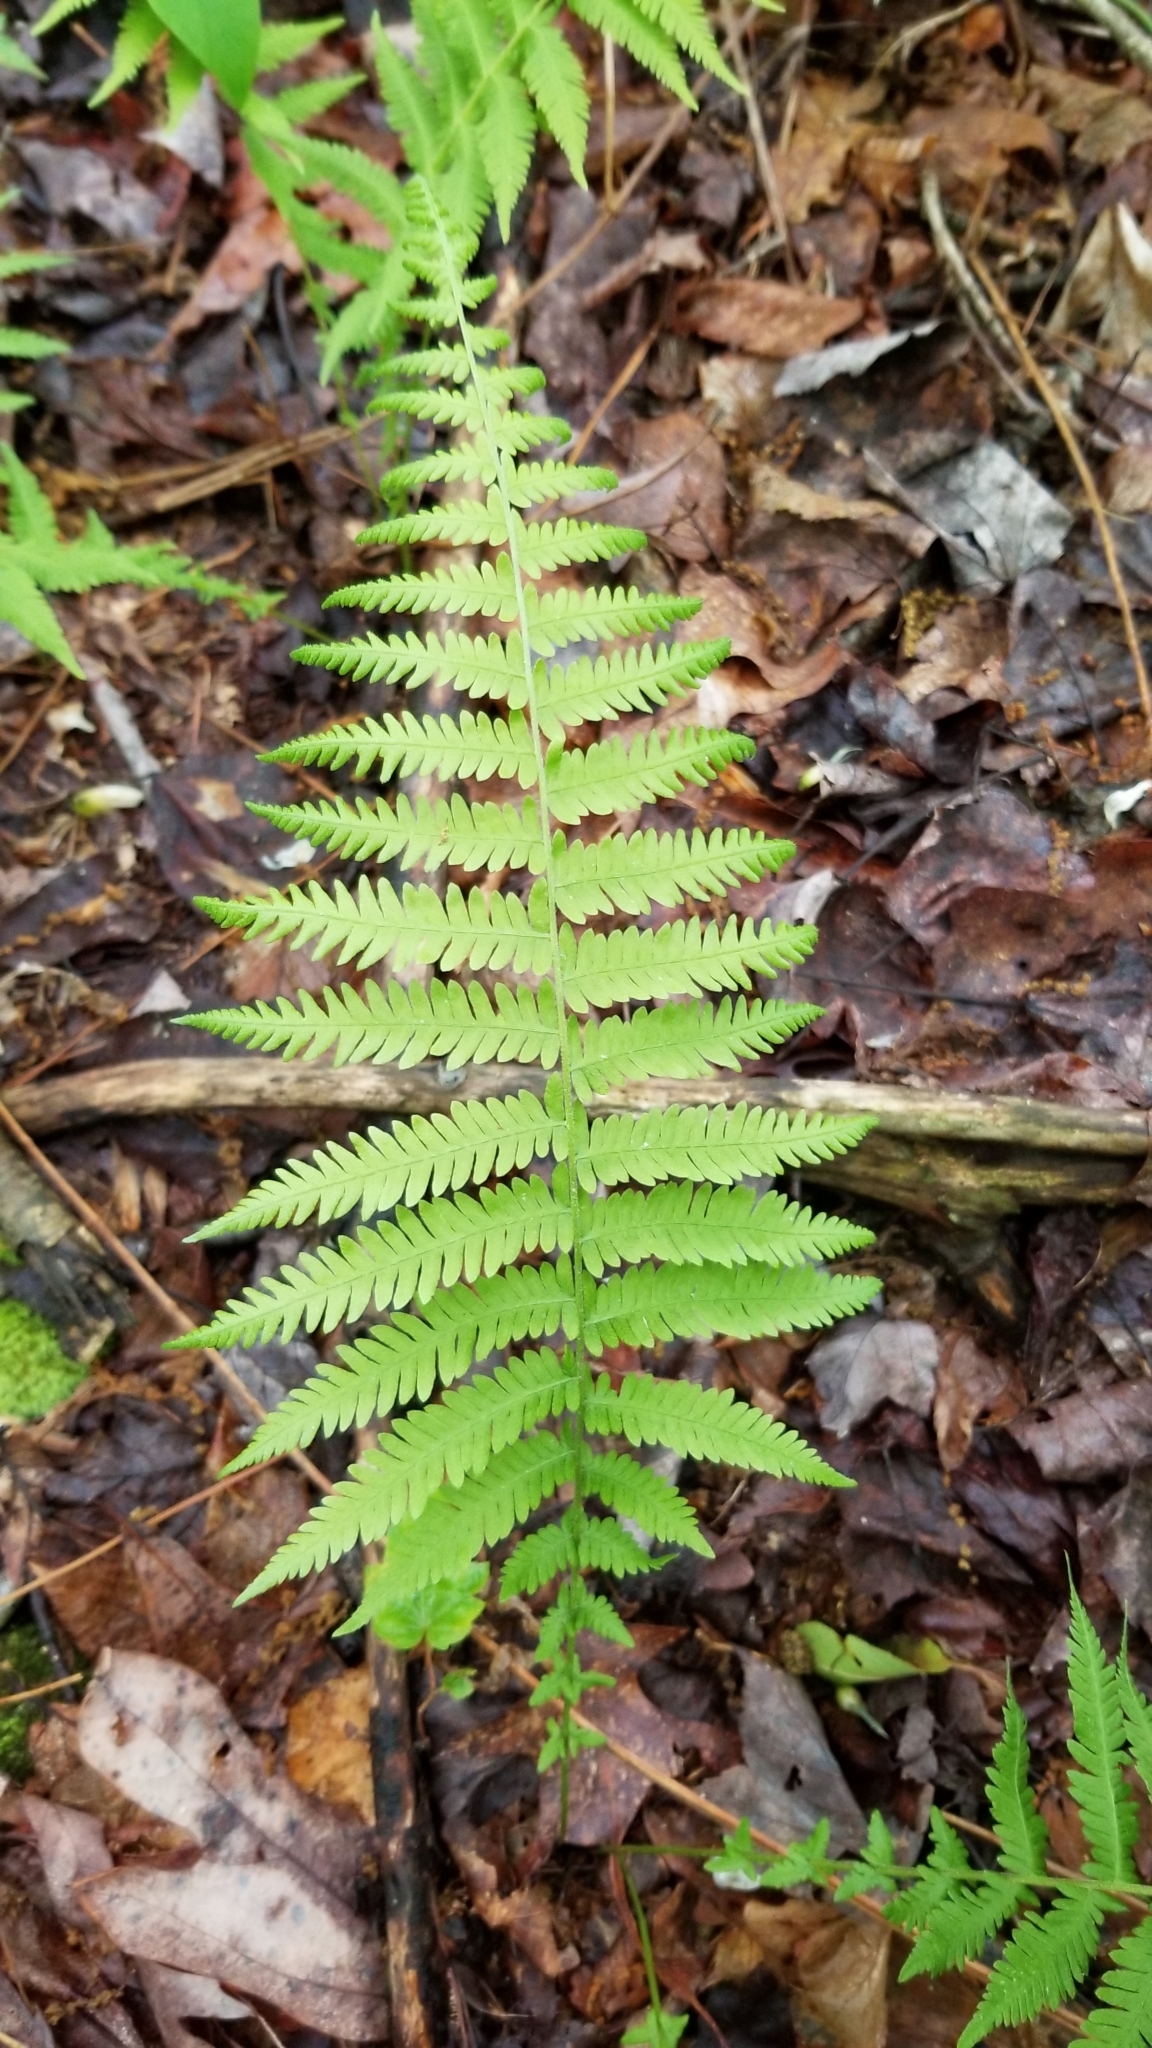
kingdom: Plantae
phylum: Tracheophyta
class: Polypodiopsida
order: Polypodiales
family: Thelypteridaceae
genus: Amauropelta
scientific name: Amauropelta noveboracensis
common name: New york fern
